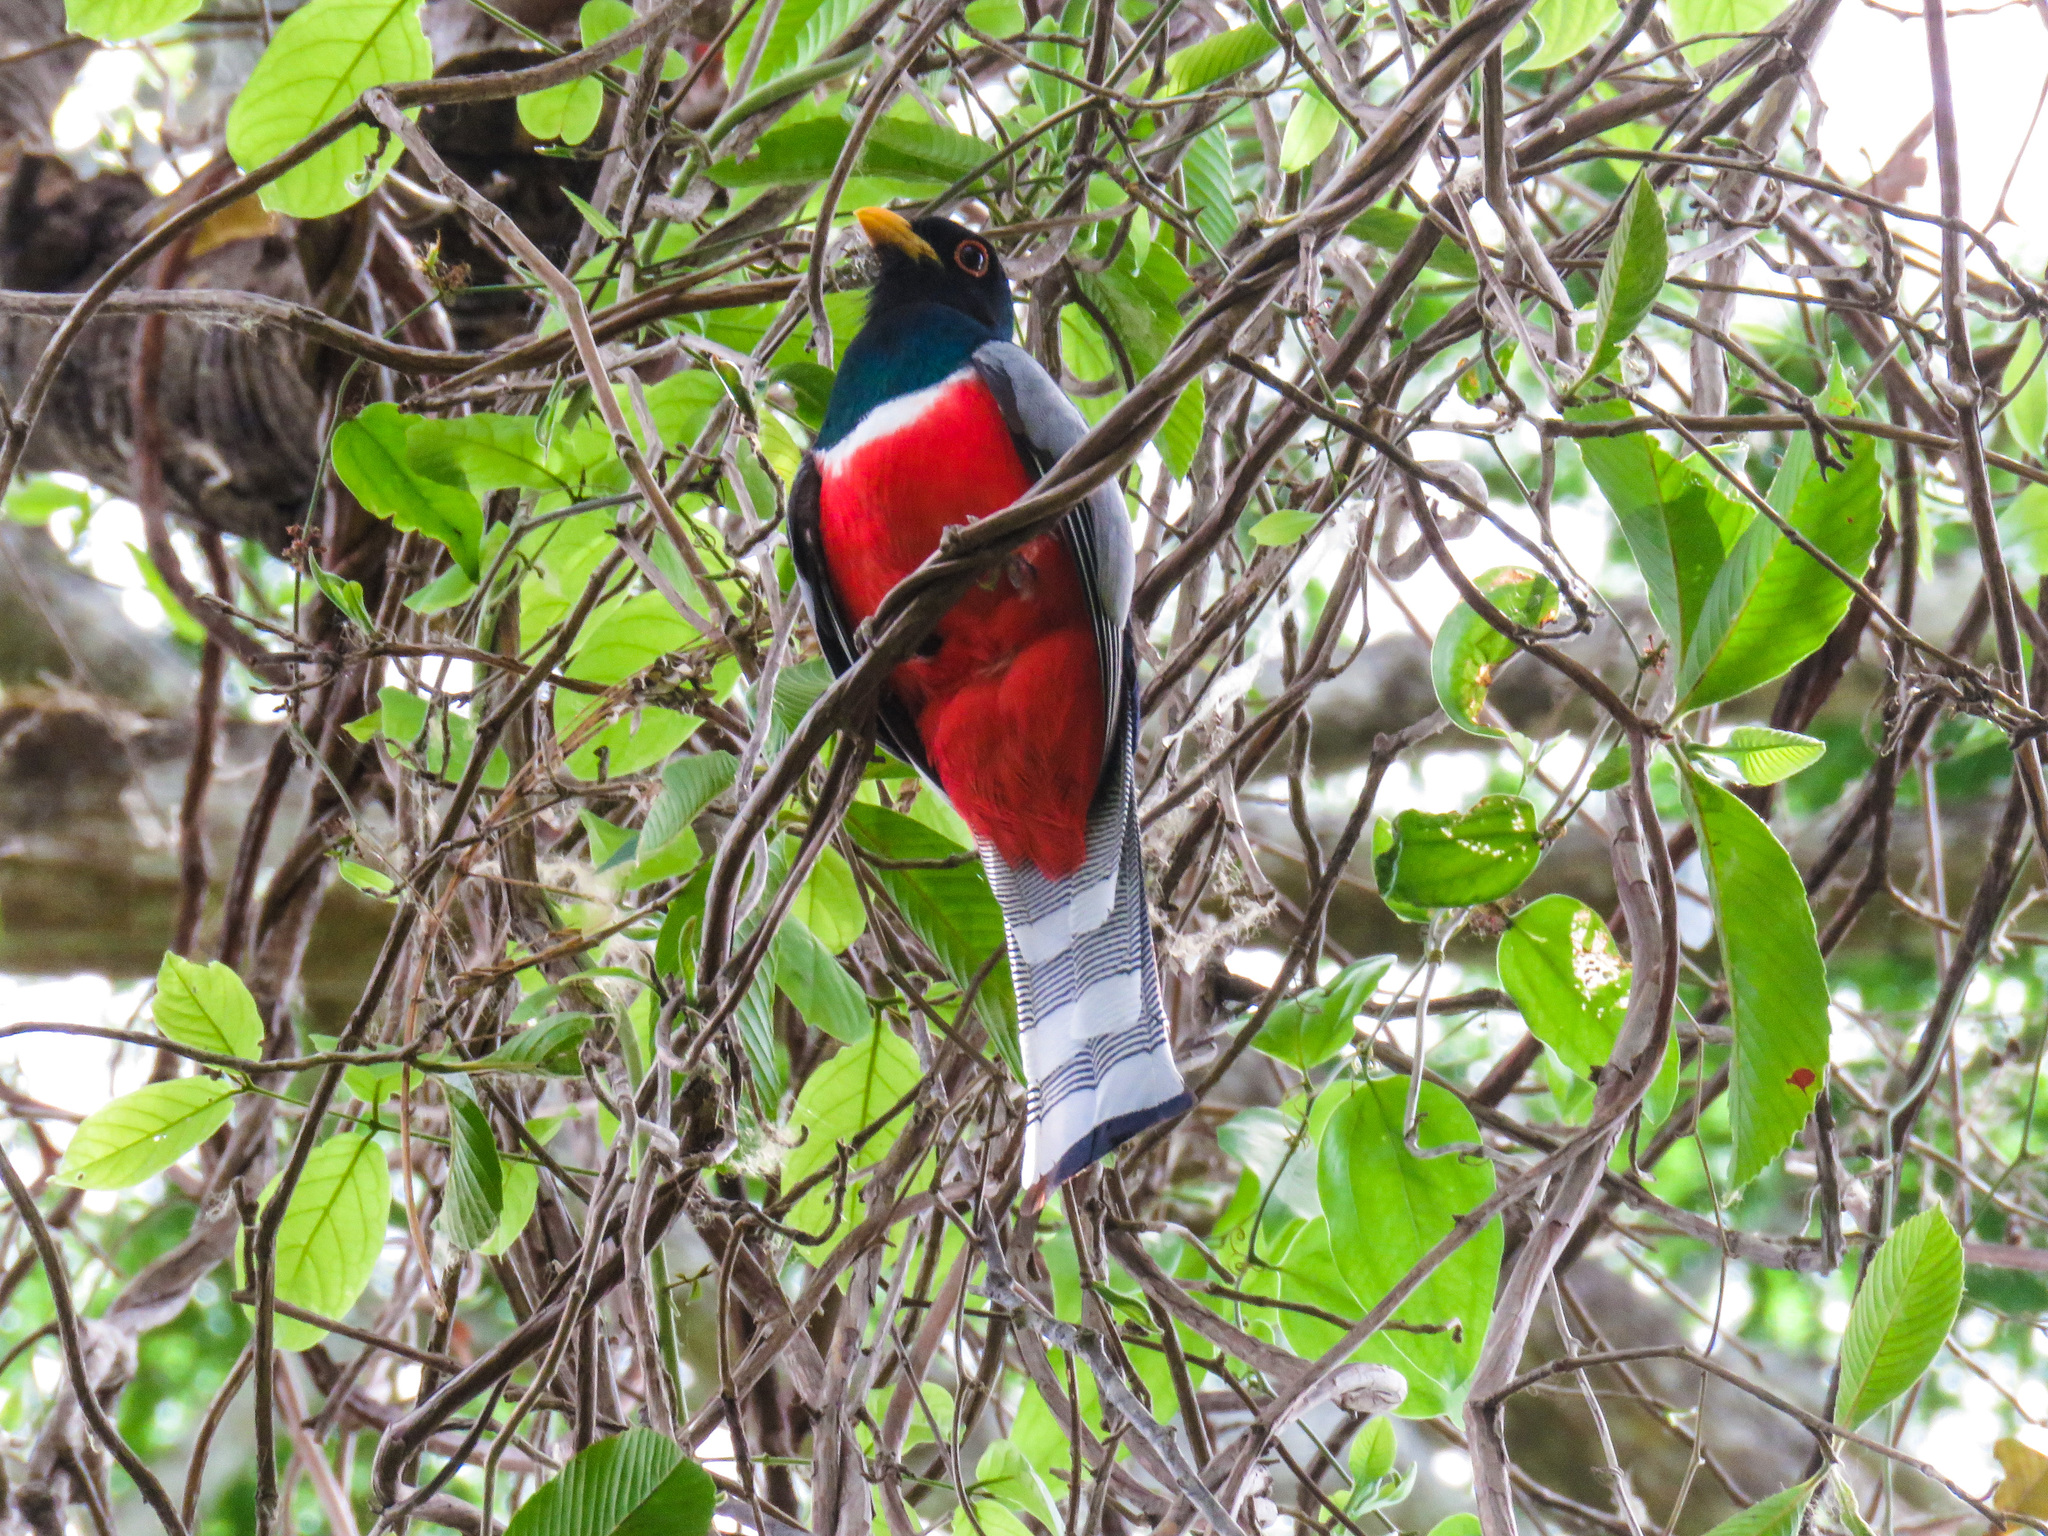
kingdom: Animalia
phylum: Chordata
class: Aves
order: Trogoniformes
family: Trogonidae
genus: Trogon
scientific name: Trogon elegans
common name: Elegant trogon
